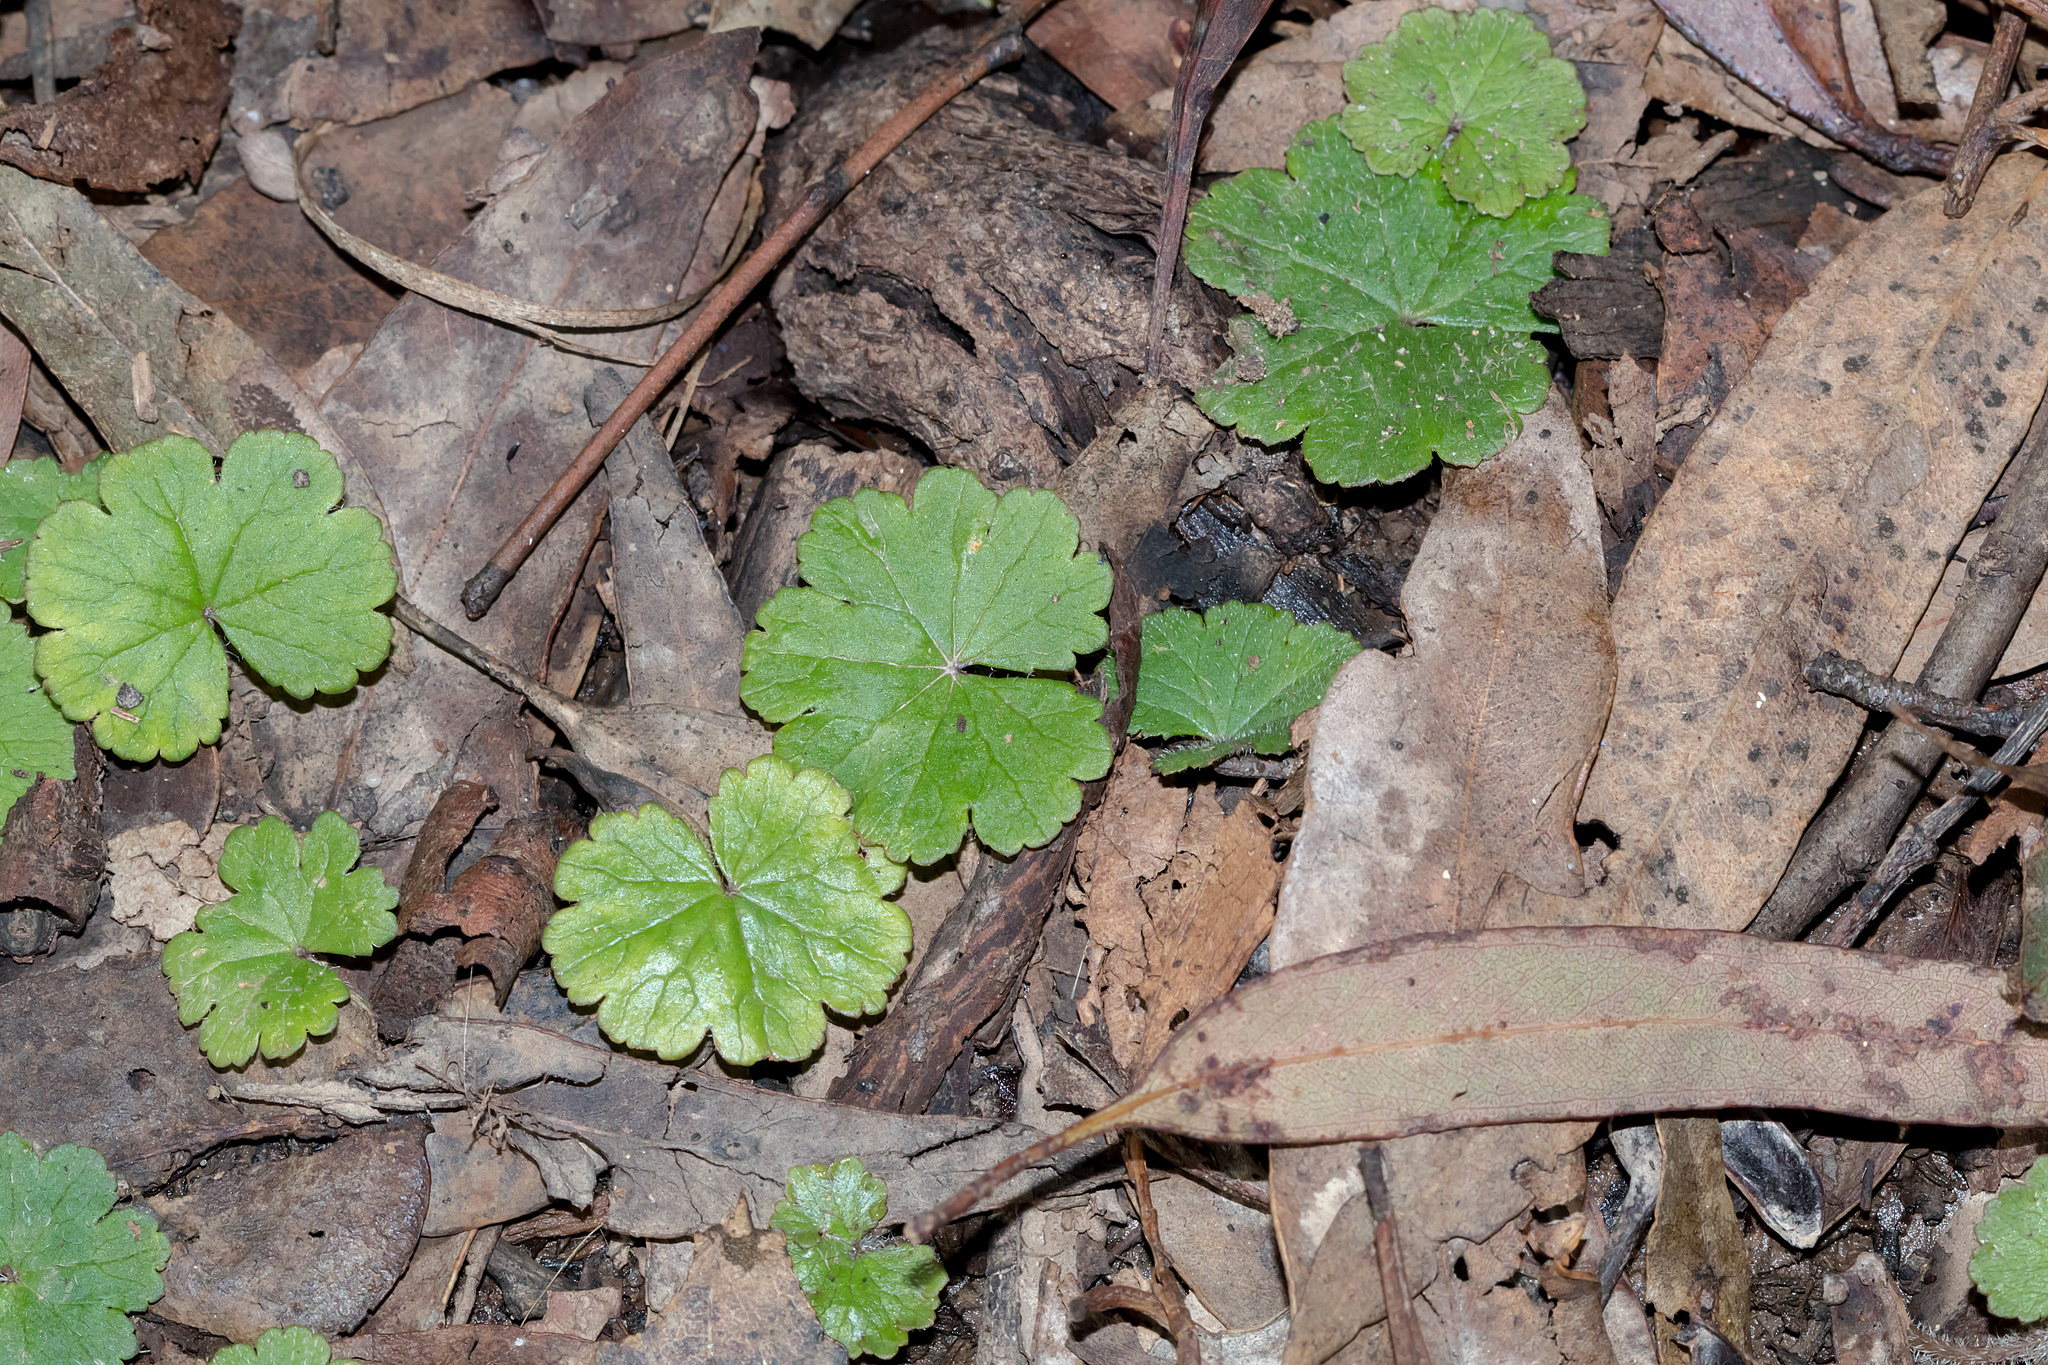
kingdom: Plantae
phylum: Tracheophyta
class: Magnoliopsida
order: Apiales
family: Araliaceae
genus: Hydrocotyle
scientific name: Hydrocotyle laxiflora
